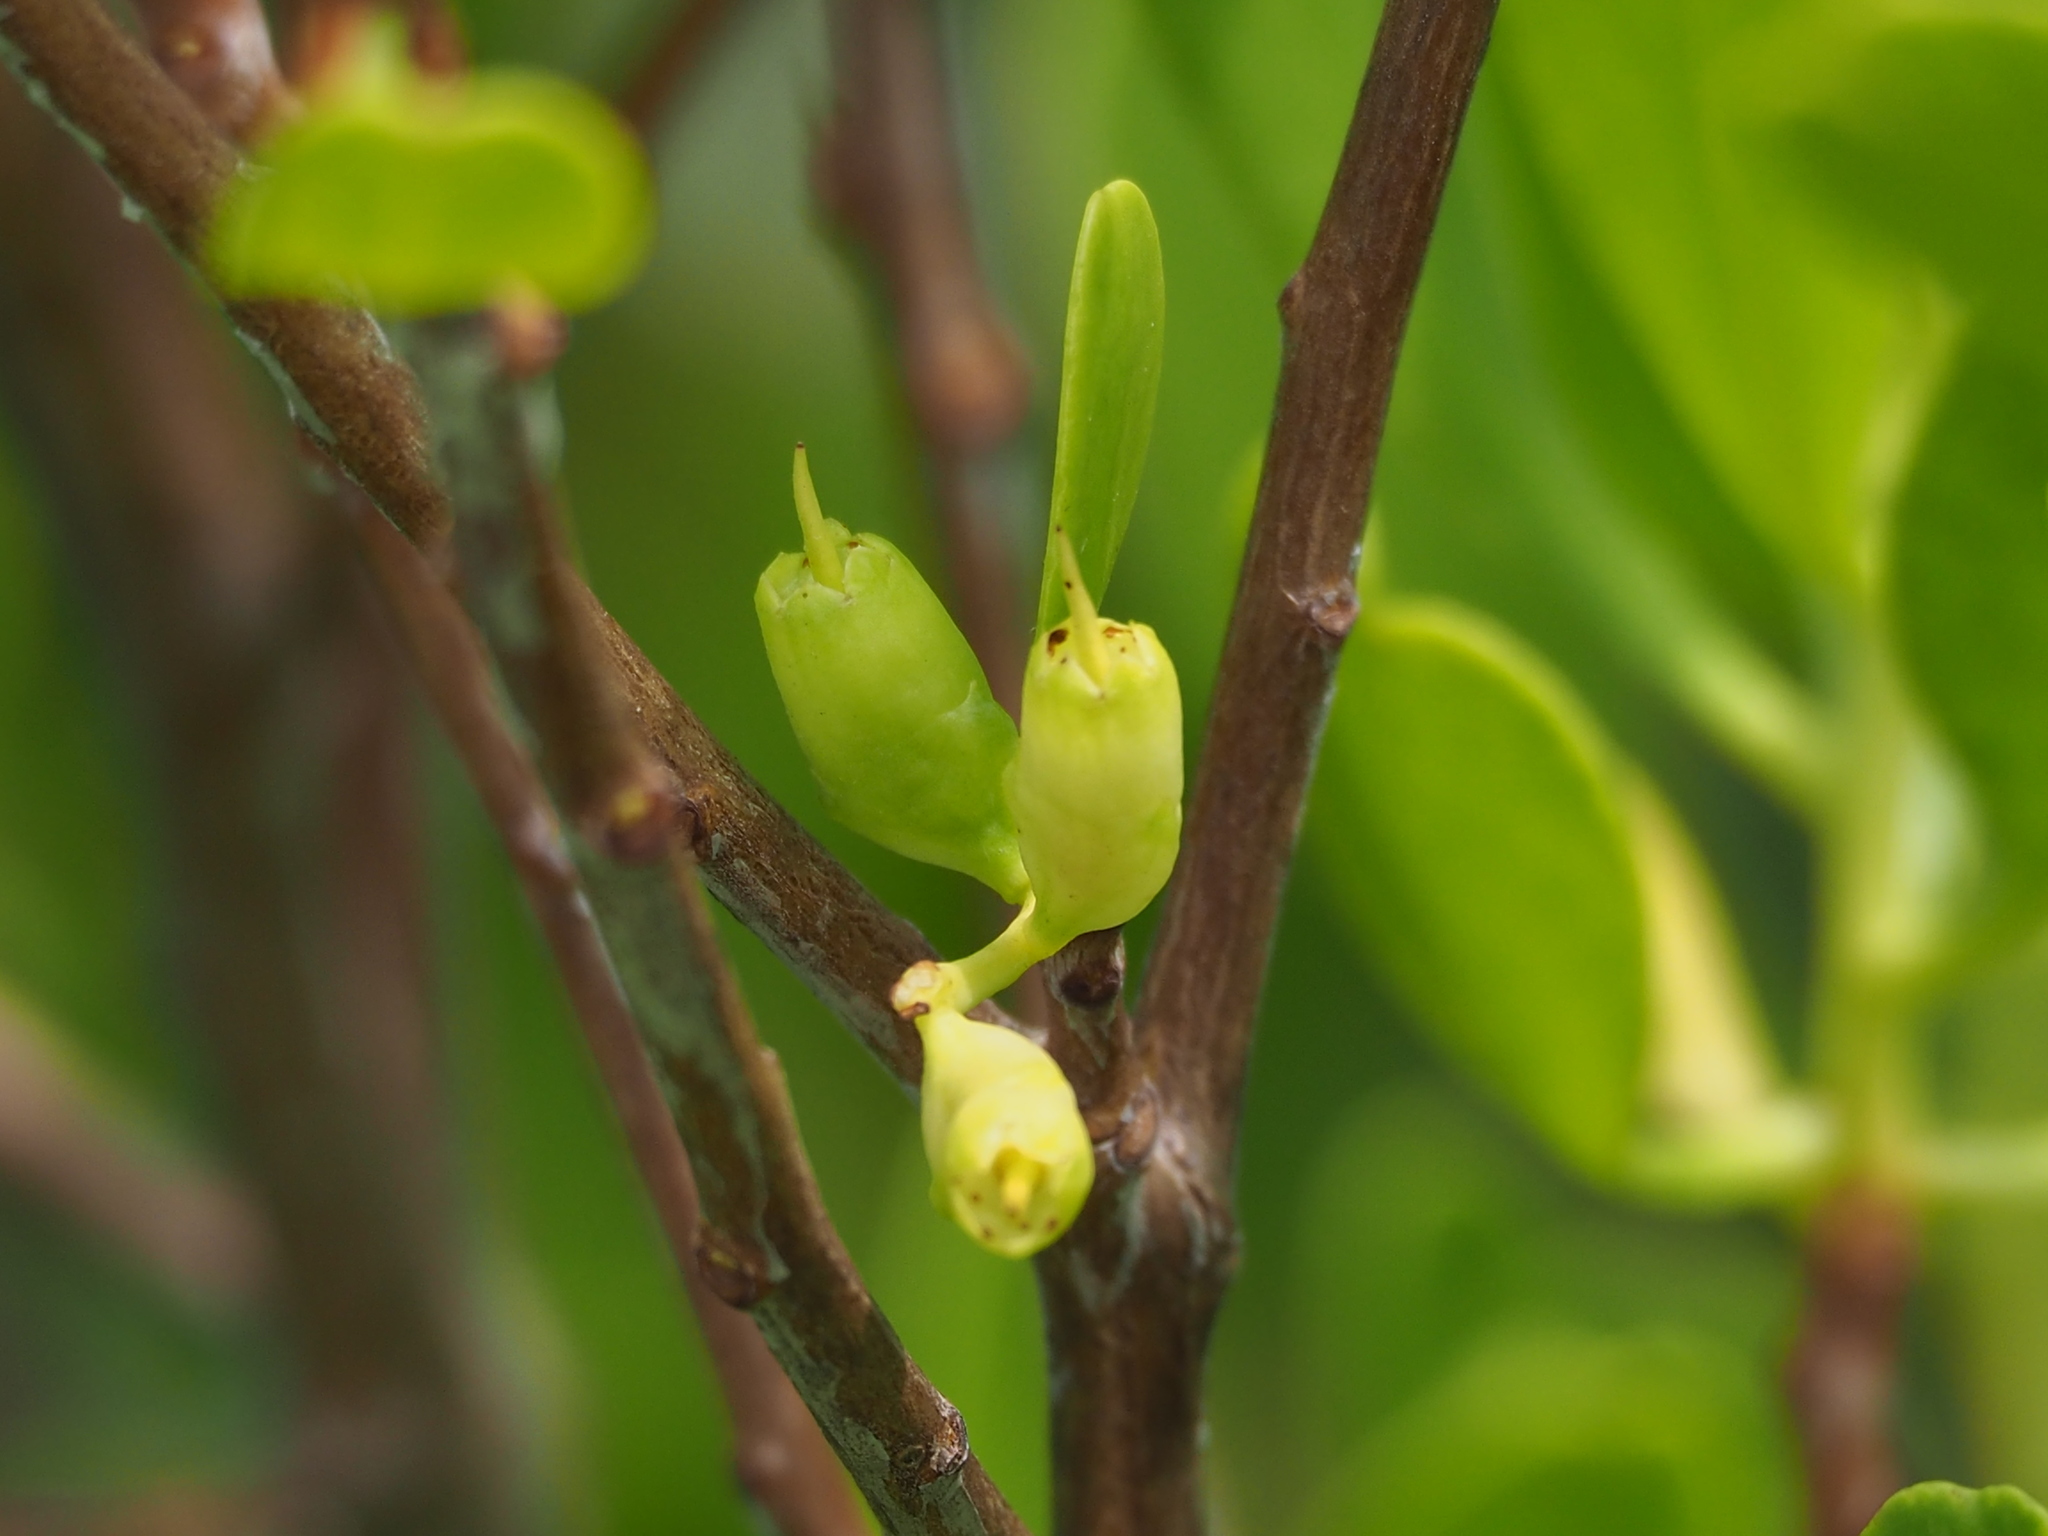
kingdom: Plantae
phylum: Tracheophyta
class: Magnoliopsida
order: Myrtales
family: Combretaceae
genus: Lumnitzera
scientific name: Lumnitzera racemosa
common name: White-flowered black mangrove
